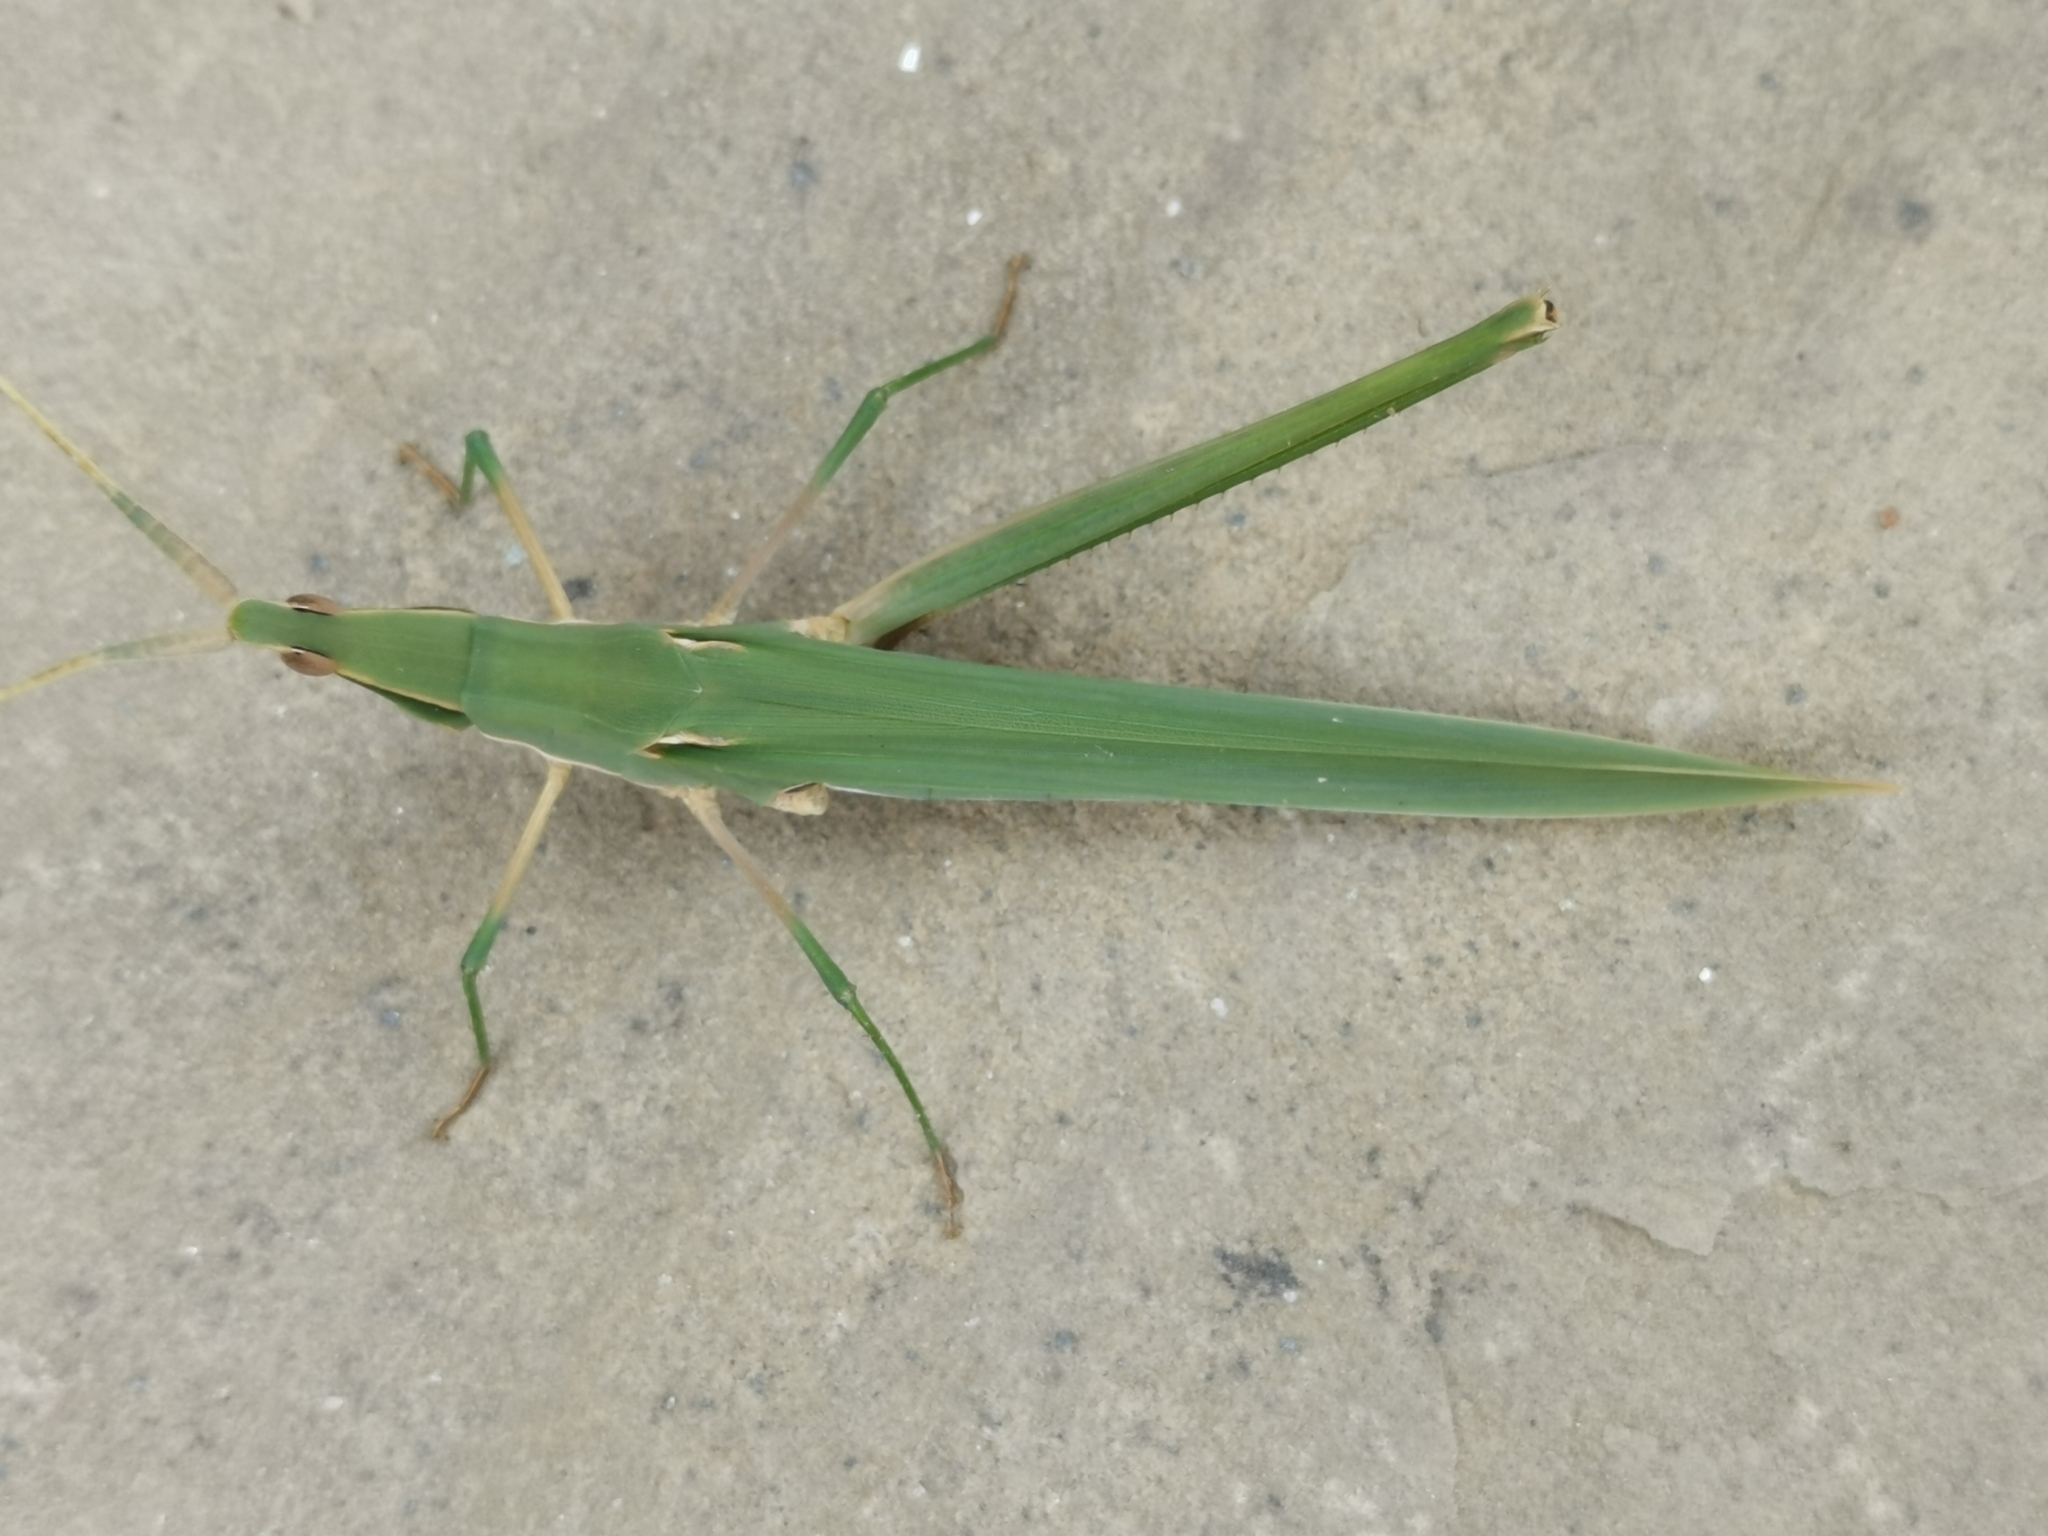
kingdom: Animalia
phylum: Arthropoda
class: Insecta
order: Orthoptera
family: Acrididae
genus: Acrida
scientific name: Acrida sulphuripennis
